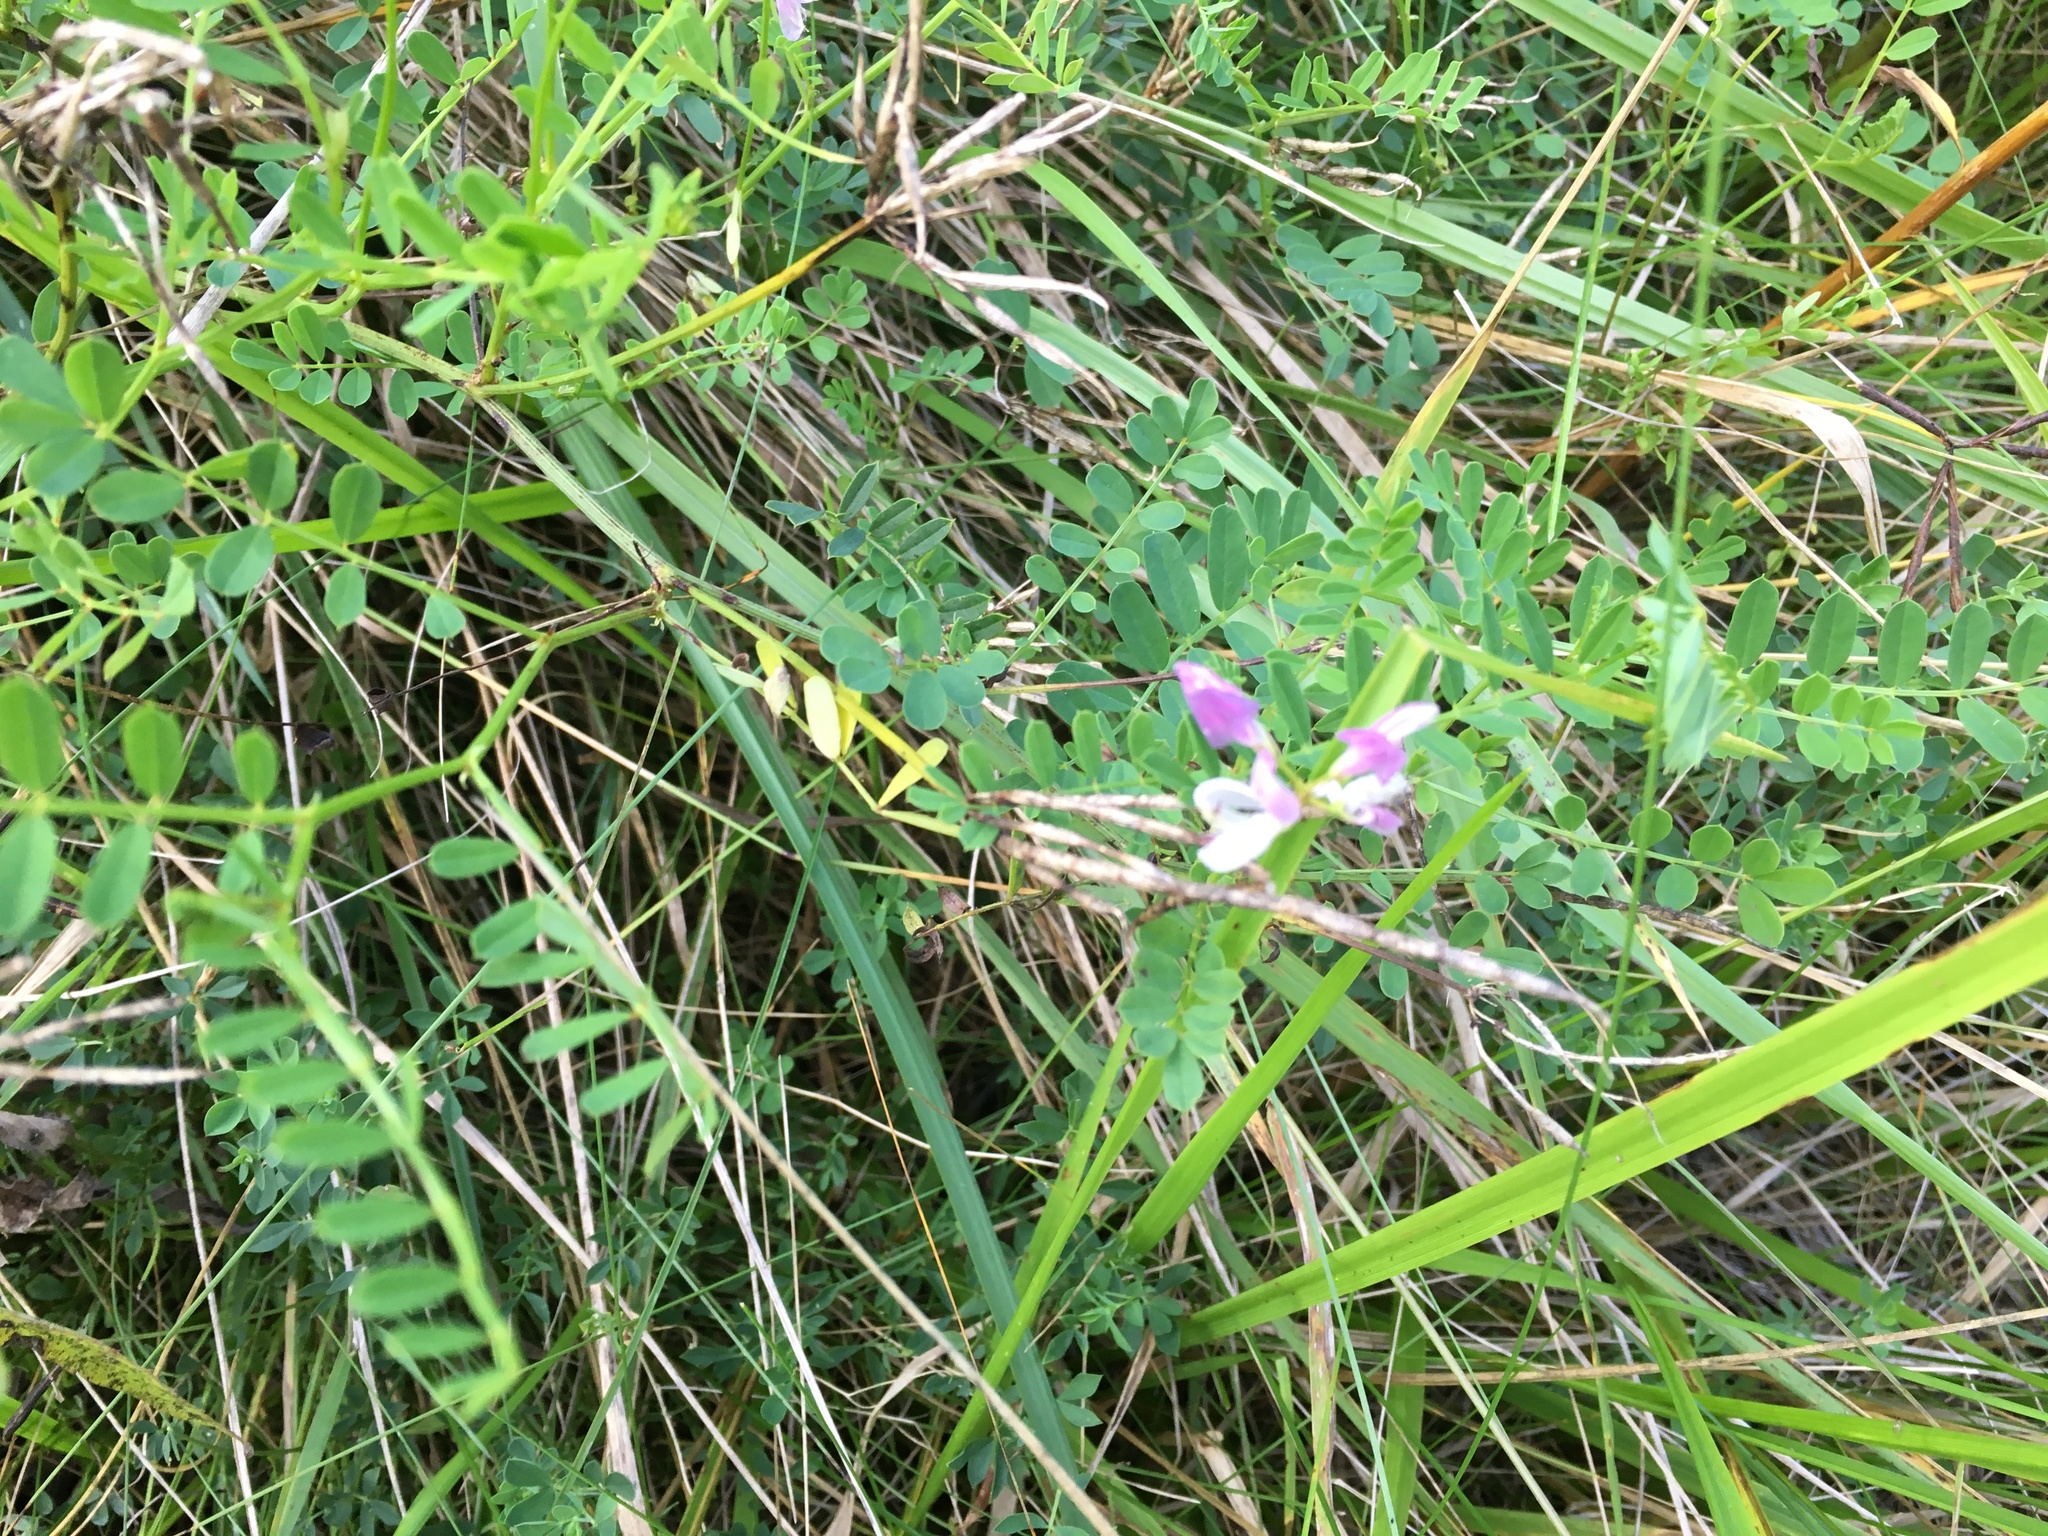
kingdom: Plantae
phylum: Tracheophyta
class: Magnoliopsida
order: Fabales
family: Fabaceae
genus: Coronilla
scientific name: Coronilla varia
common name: Crownvetch
